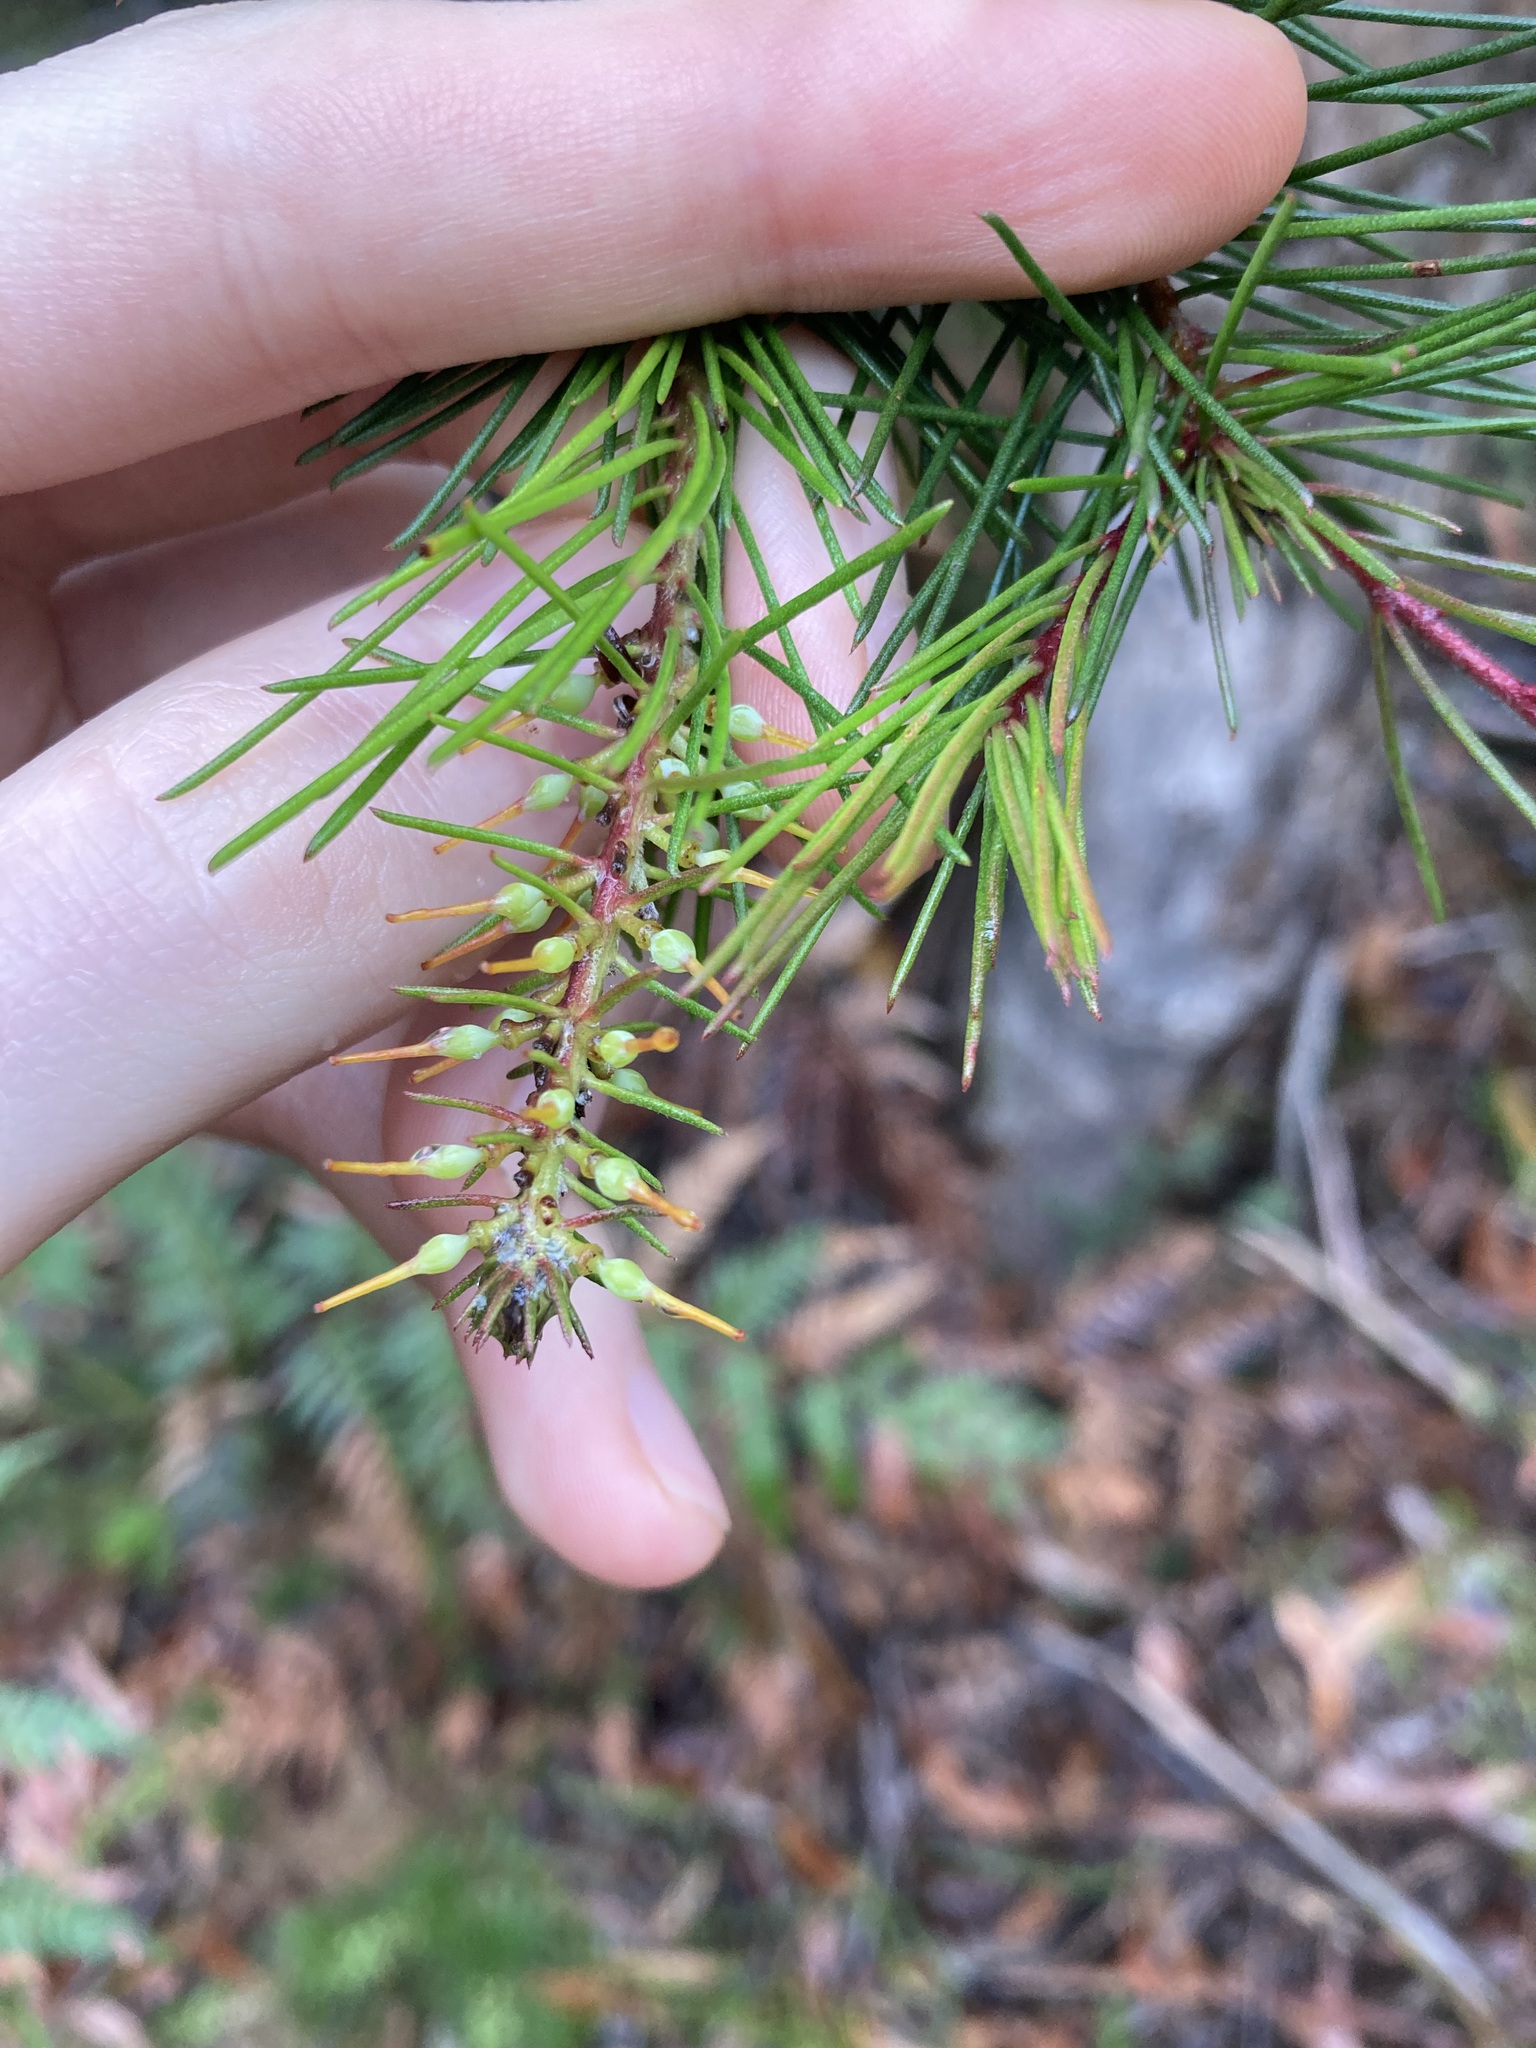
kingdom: Plantae
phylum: Tracheophyta
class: Magnoliopsida
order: Proteales
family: Proteaceae
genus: Persoonia
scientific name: Persoonia pinifolia
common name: Pine-leaf geebung
